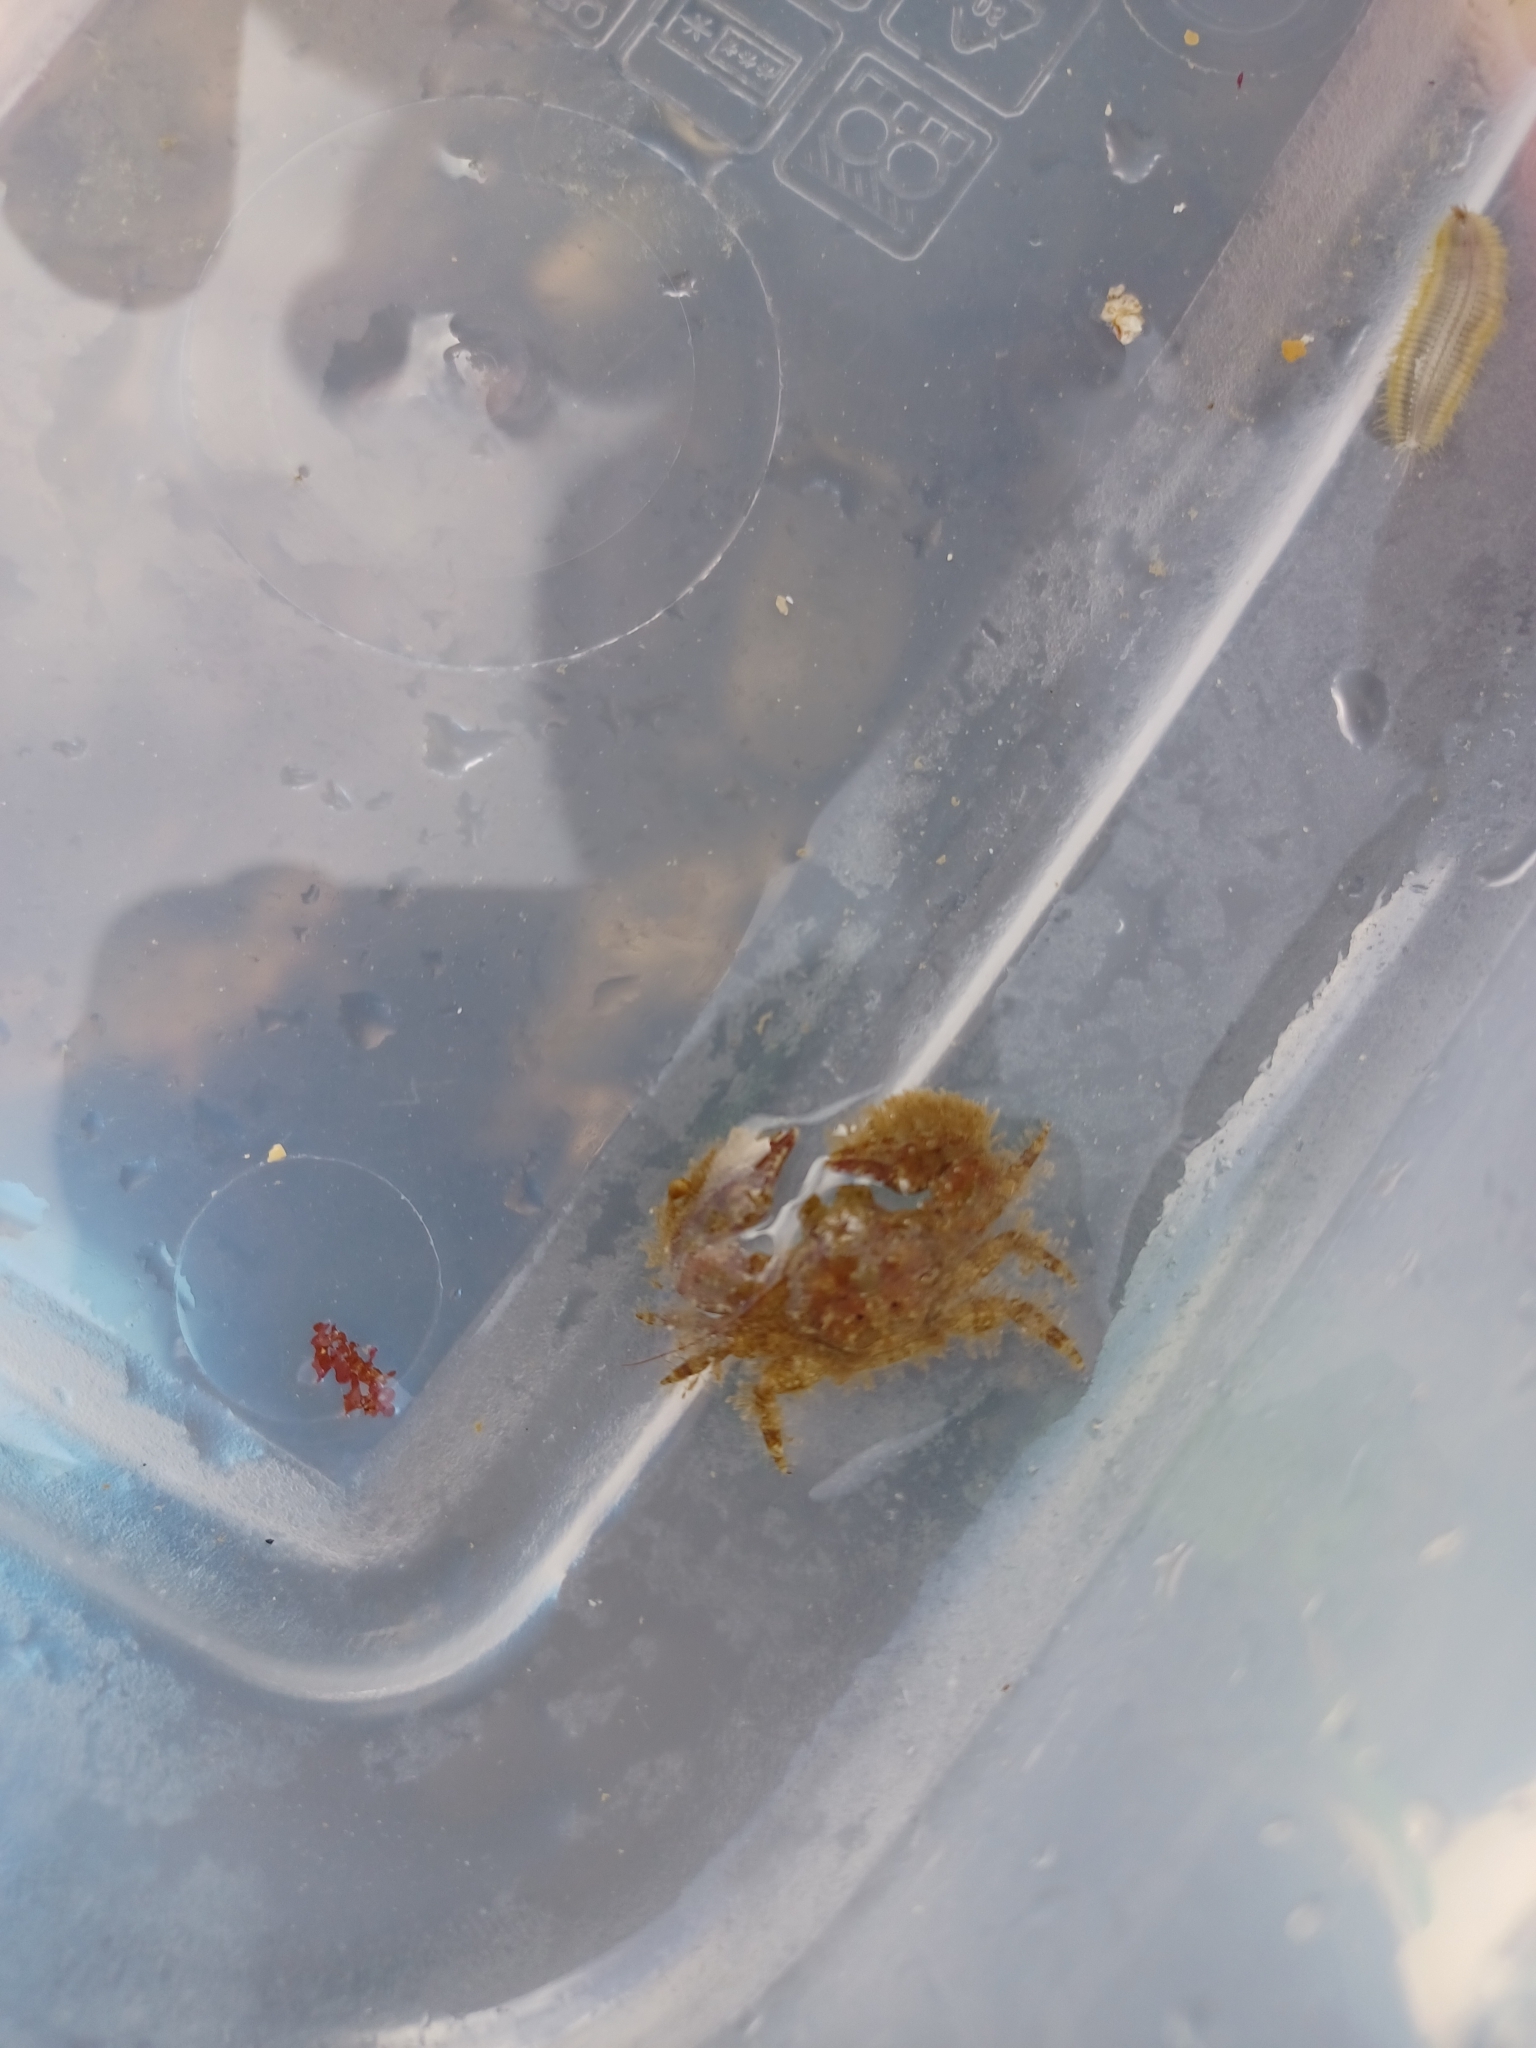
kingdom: Animalia
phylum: Arthropoda
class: Malacostraca
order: Decapoda
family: Porcellanidae
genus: Porcellana
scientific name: Porcellana platycheles
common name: Porcelain crab
